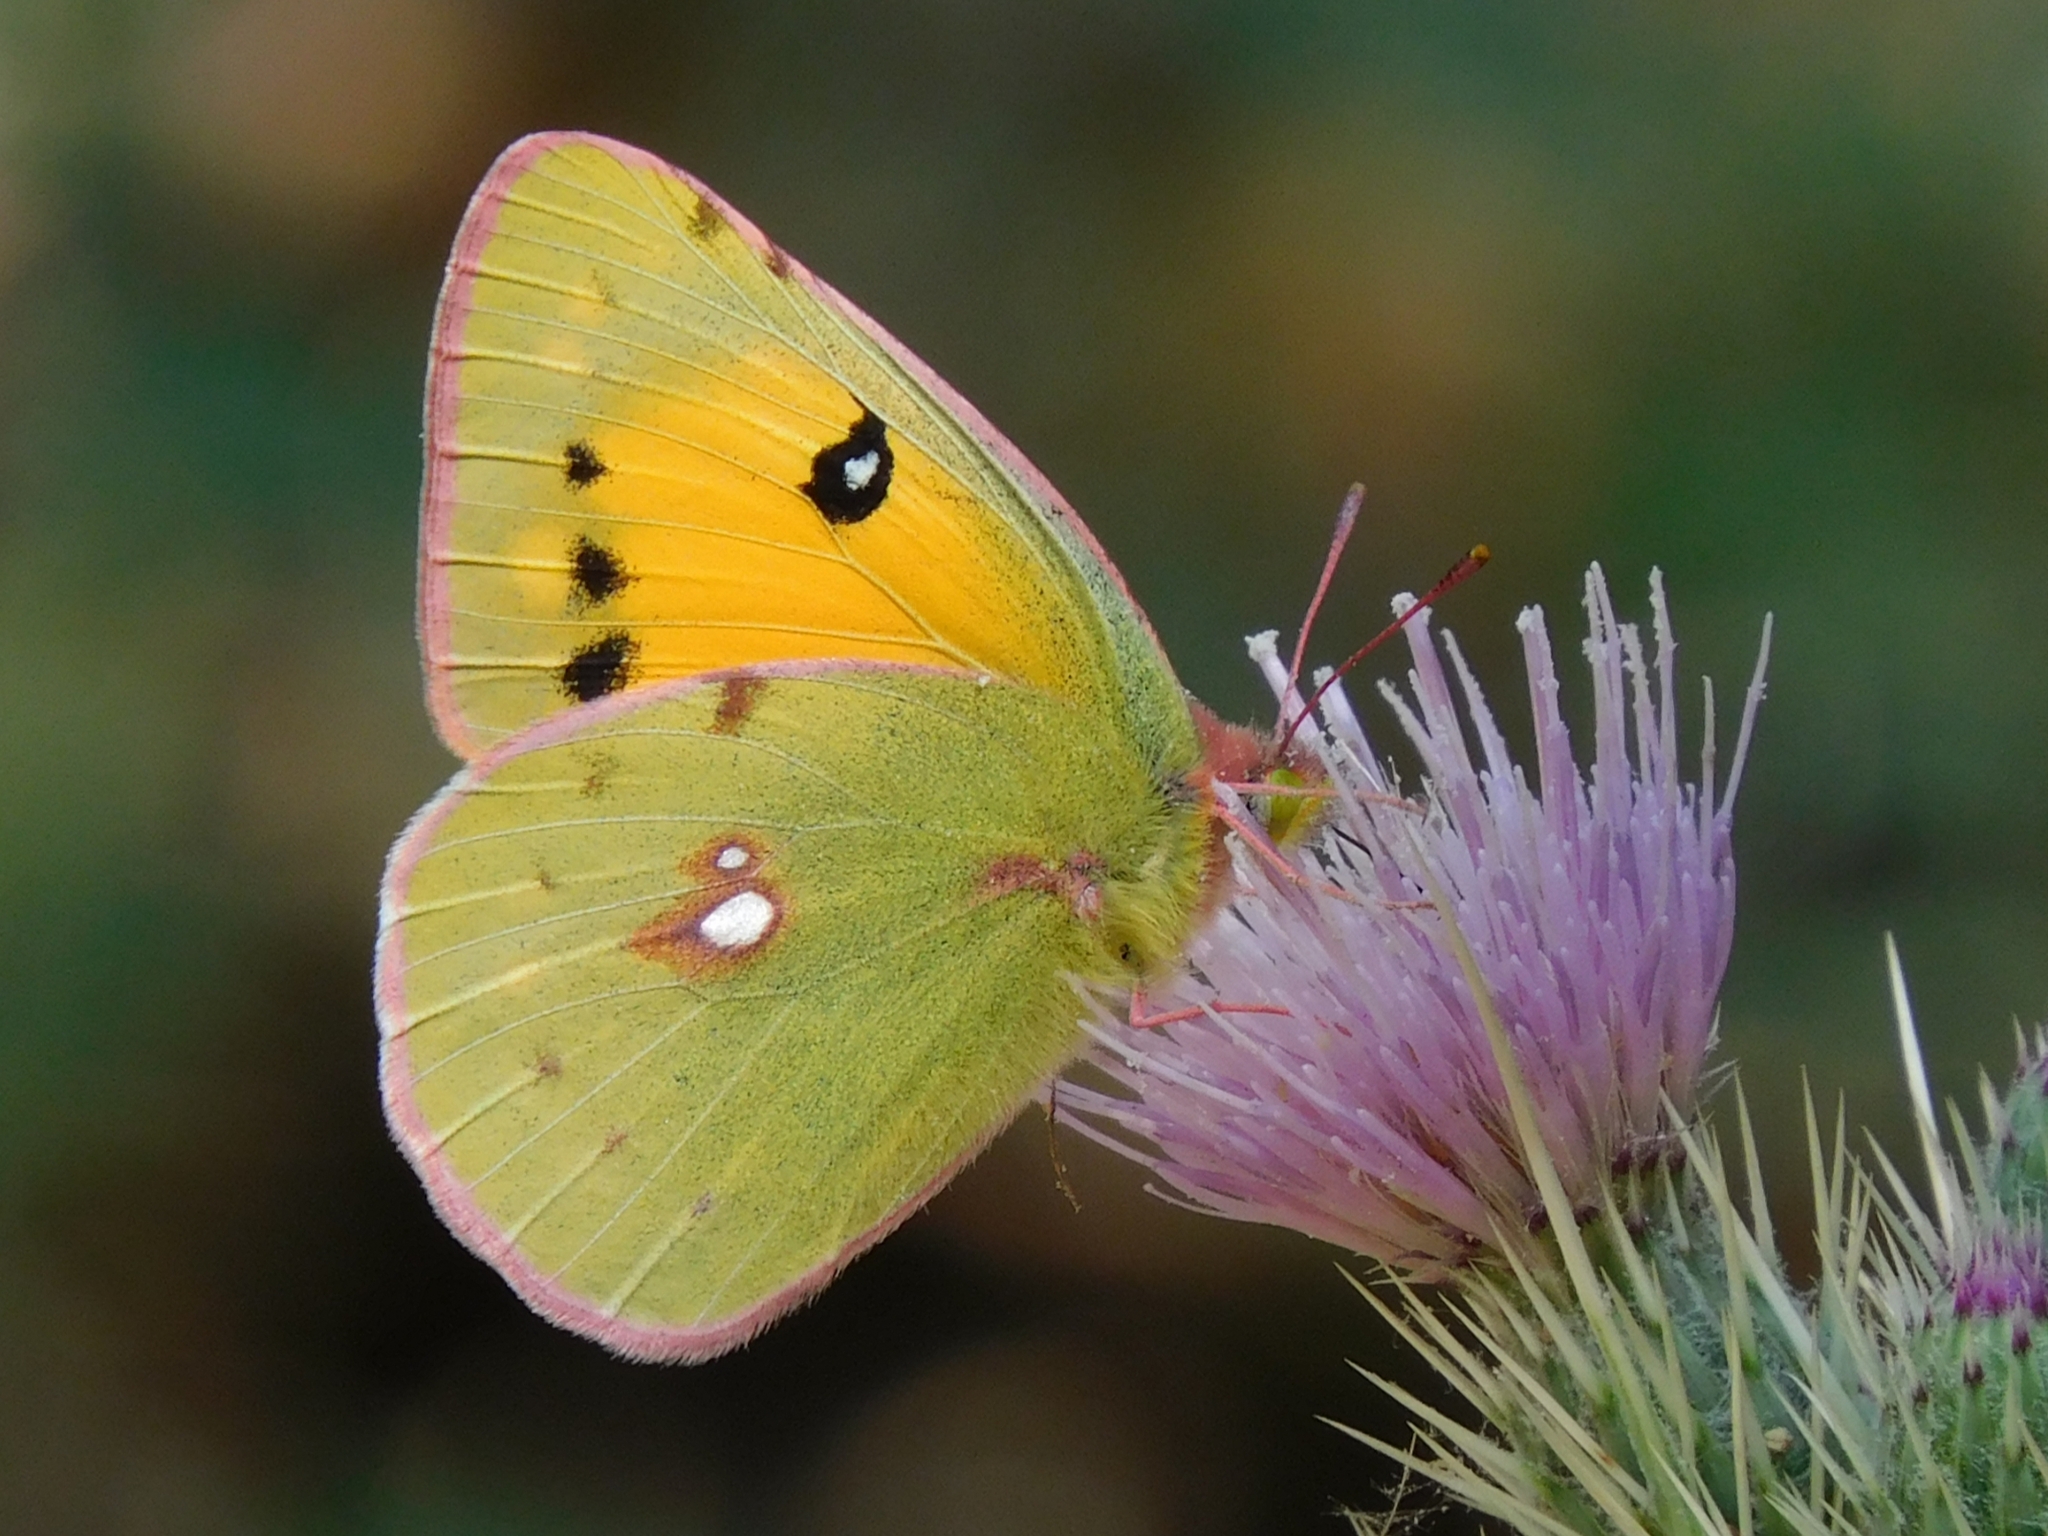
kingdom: Animalia
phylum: Arthropoda
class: Insecta
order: Lepidoptera
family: Pieridae
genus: Colias
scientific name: Colias fieldii
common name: Dark clouded yellow
